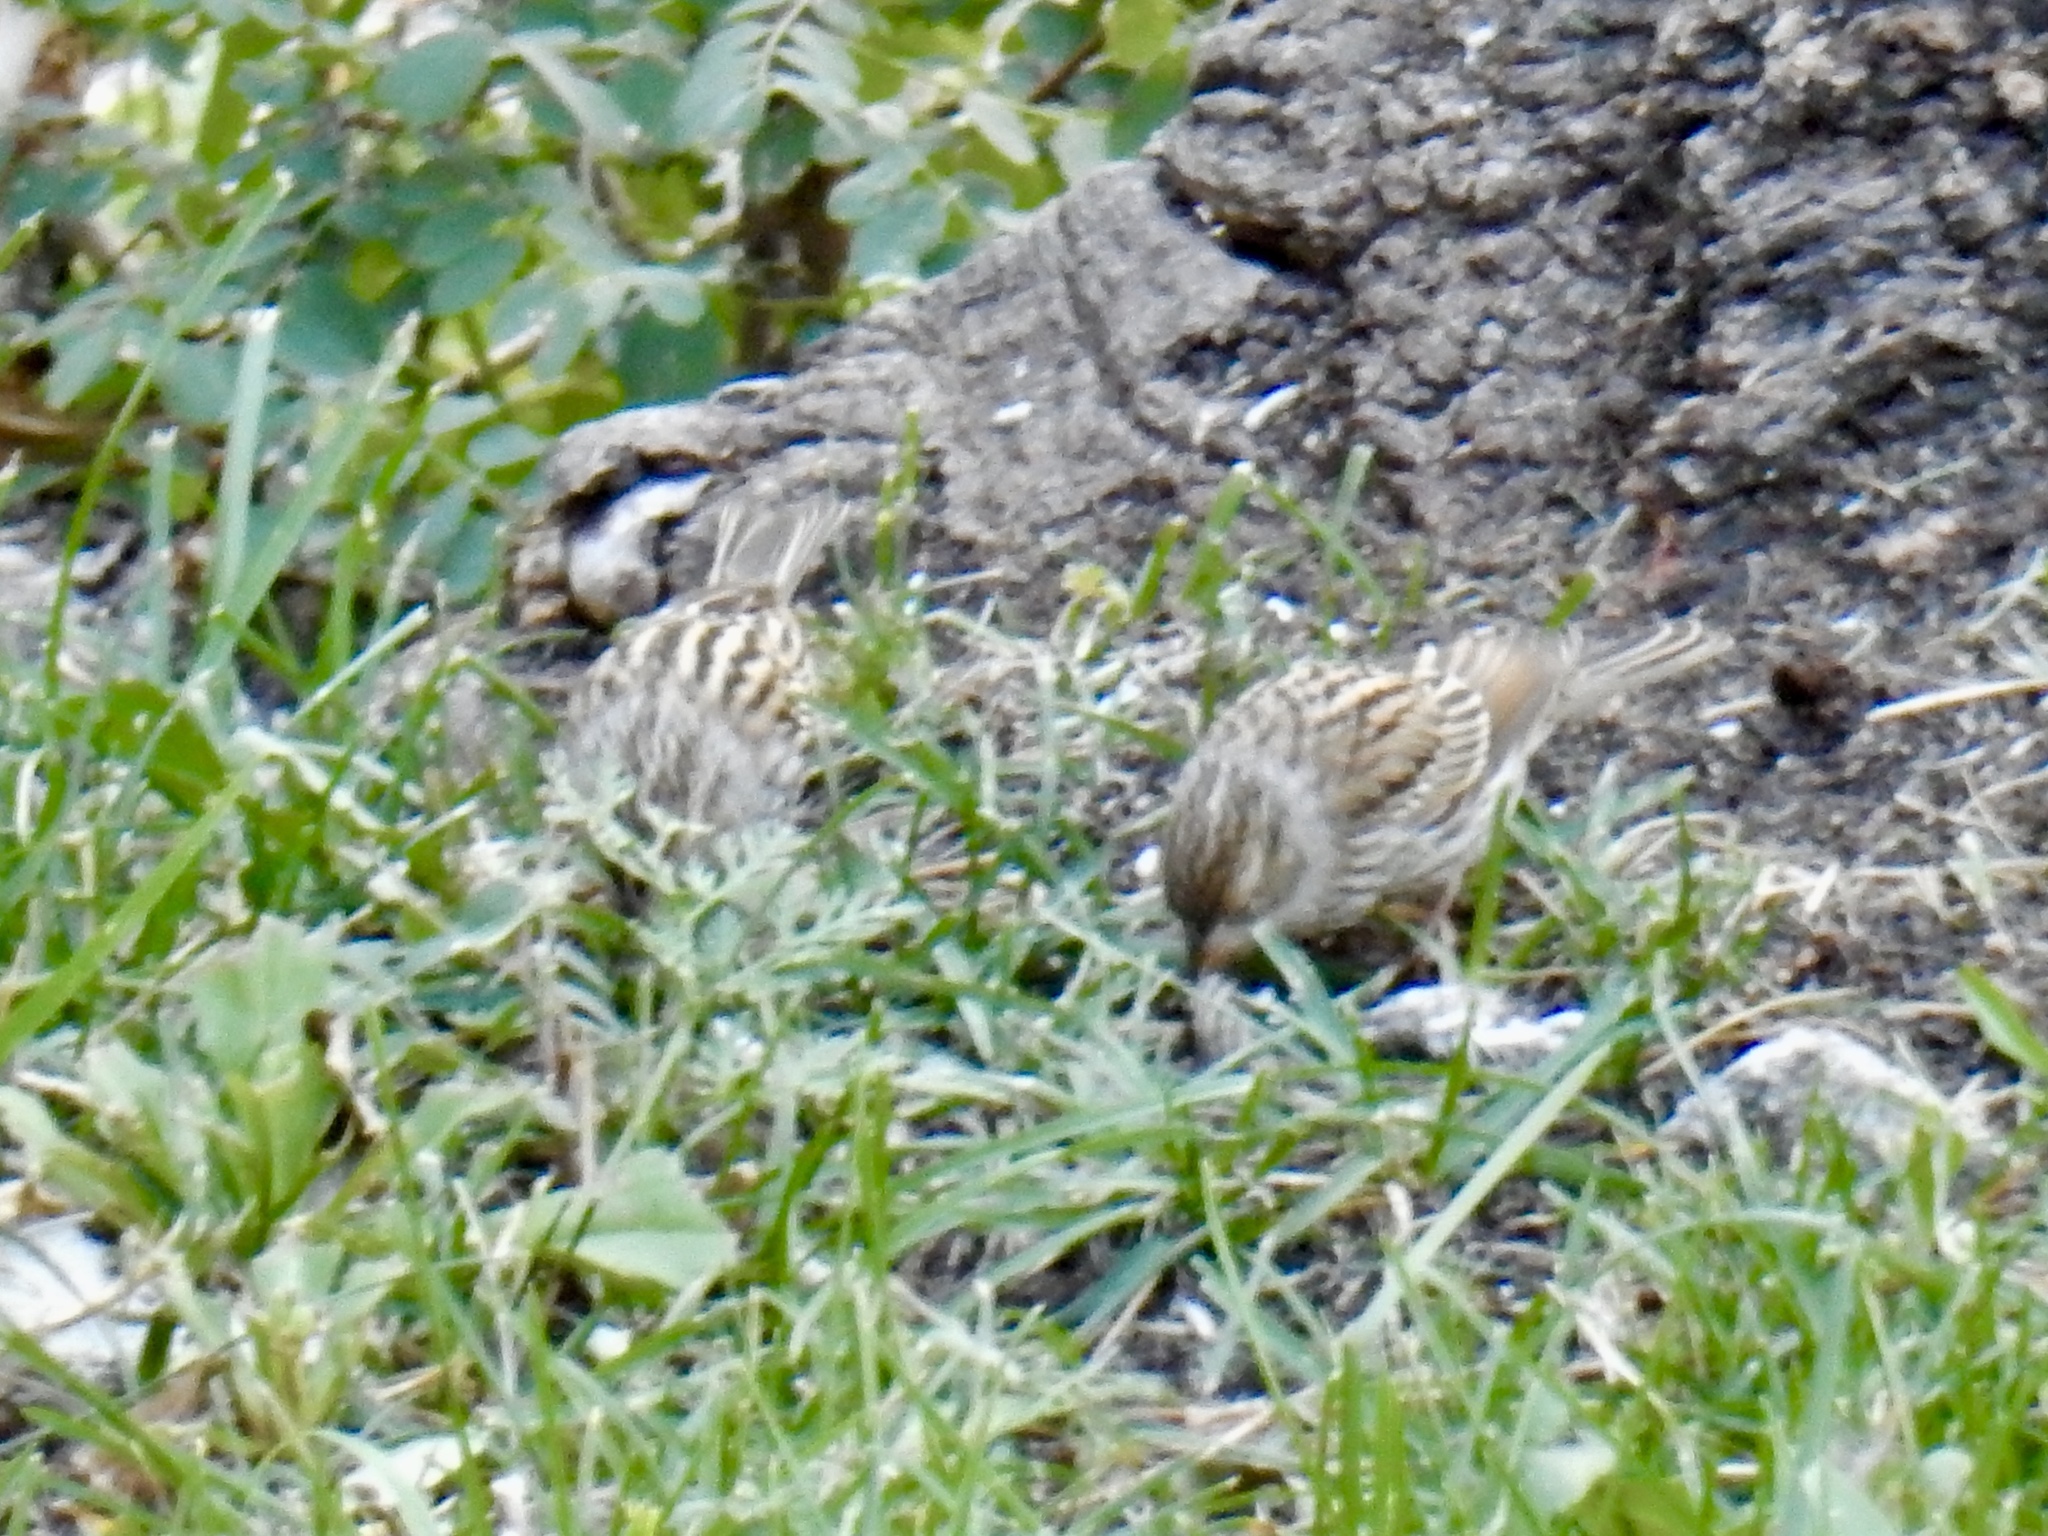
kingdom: Animalia
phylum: Chordata
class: Aves
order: Passeriformes
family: Passerellidae
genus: Spizella
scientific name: Spizella passerina
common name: Chipping sparrow
